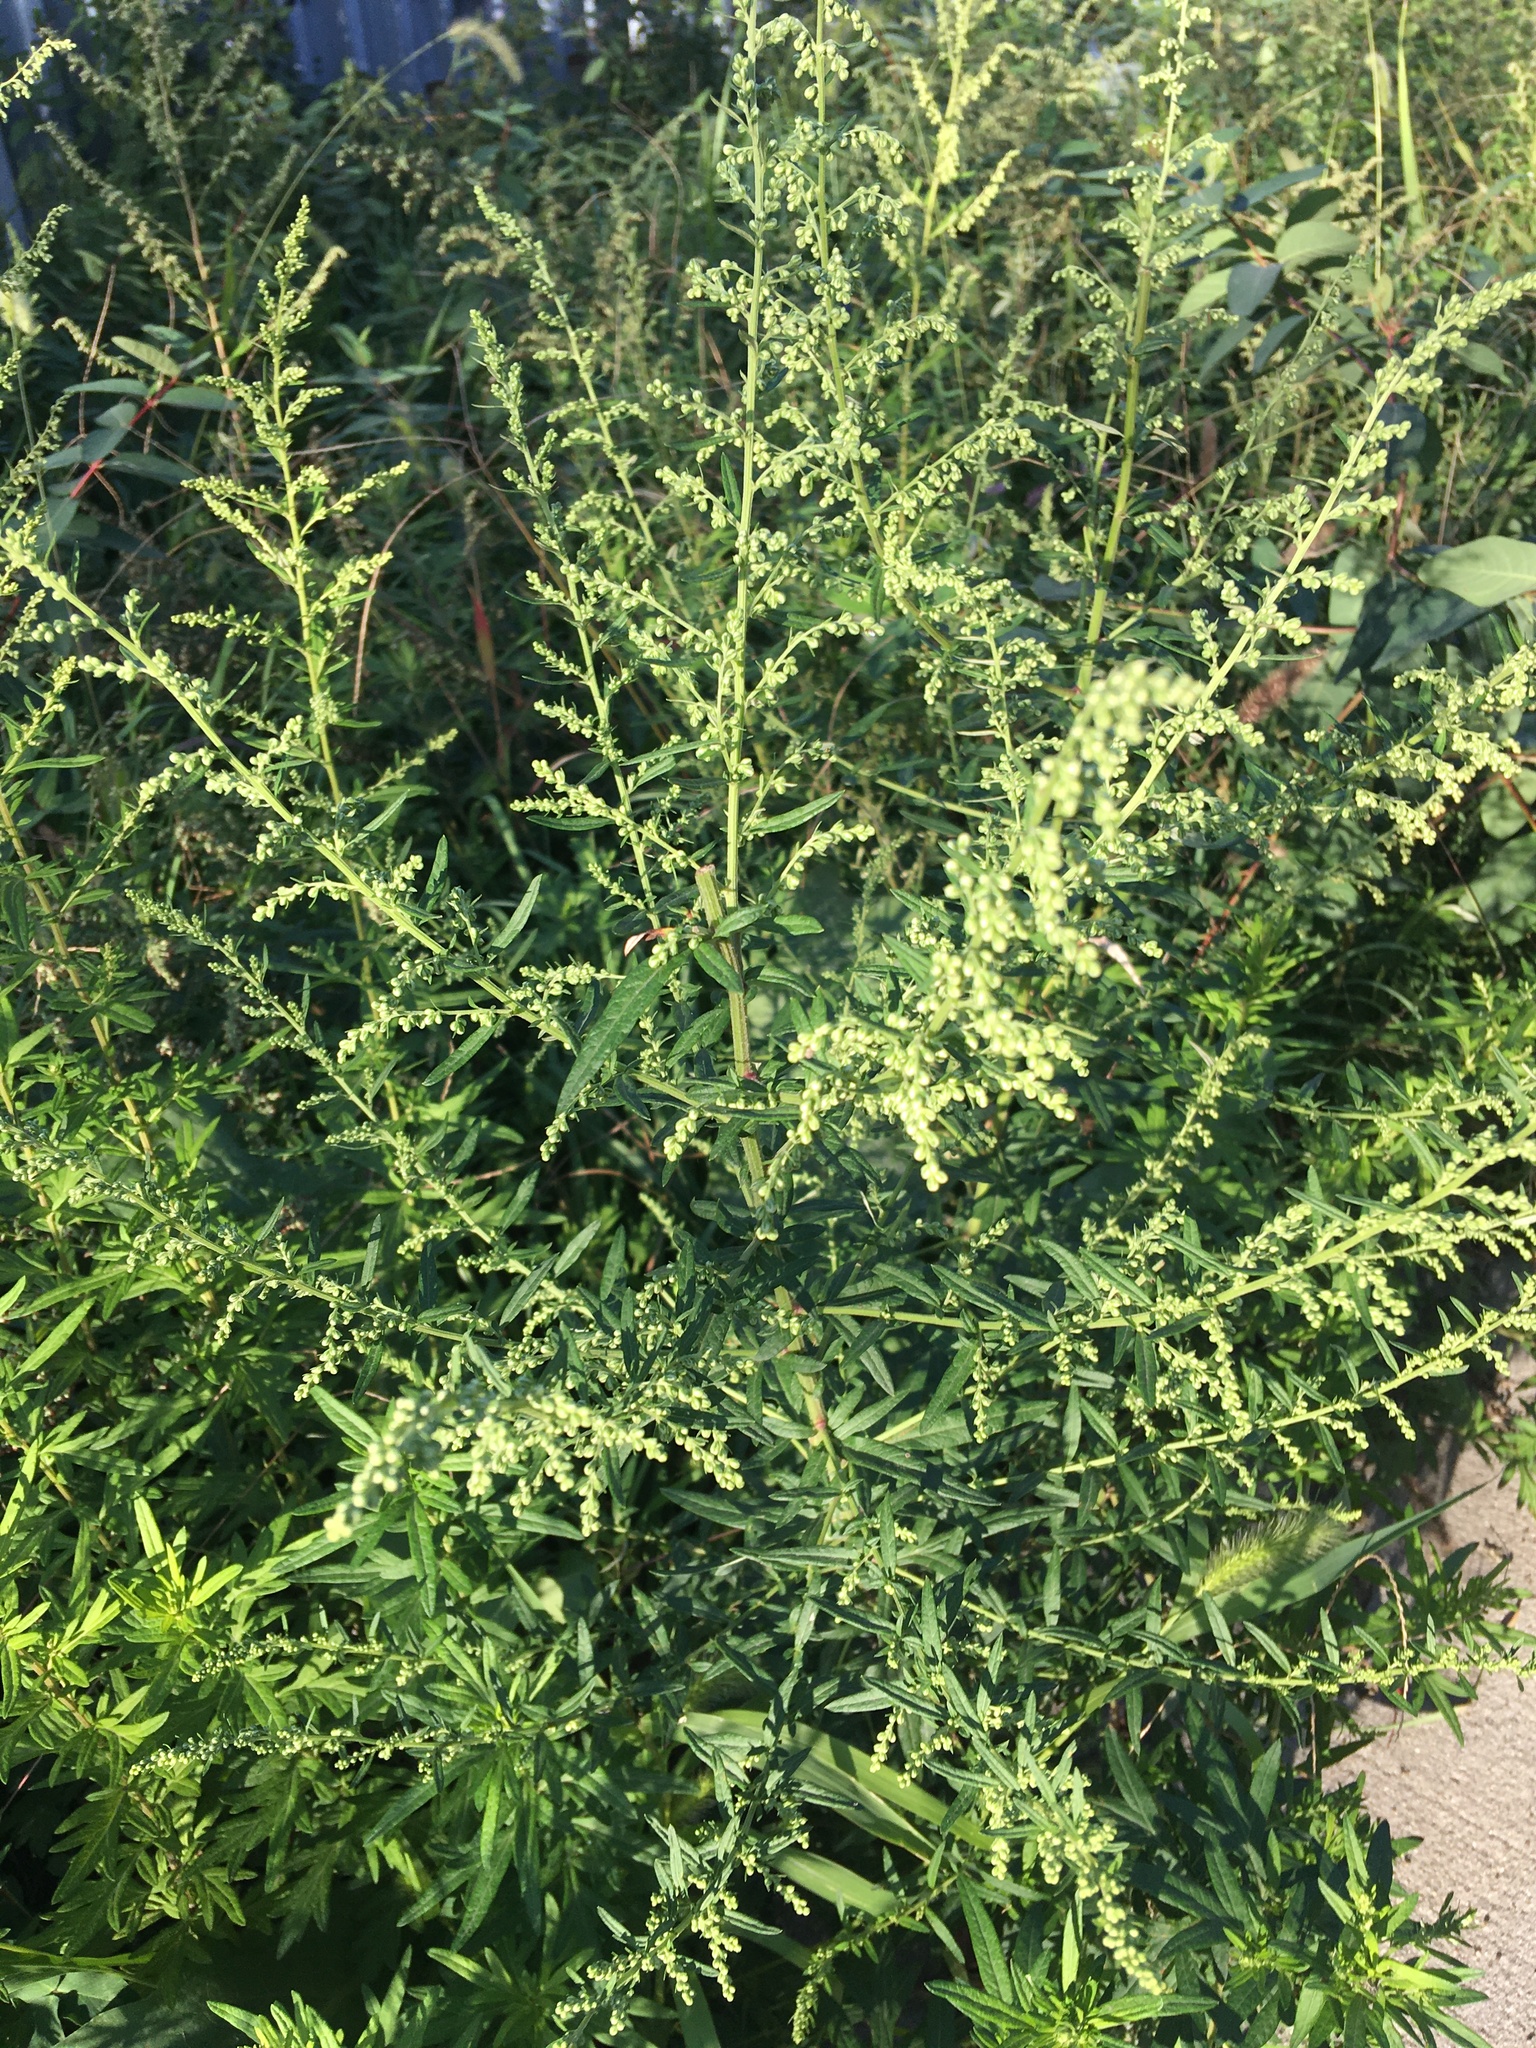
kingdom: Plantae
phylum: Tracheophyta
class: Magnoliopsida
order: Asterales
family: Asteraceae
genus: Artemisia
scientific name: Artemisia vulgaris
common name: Mugwort
